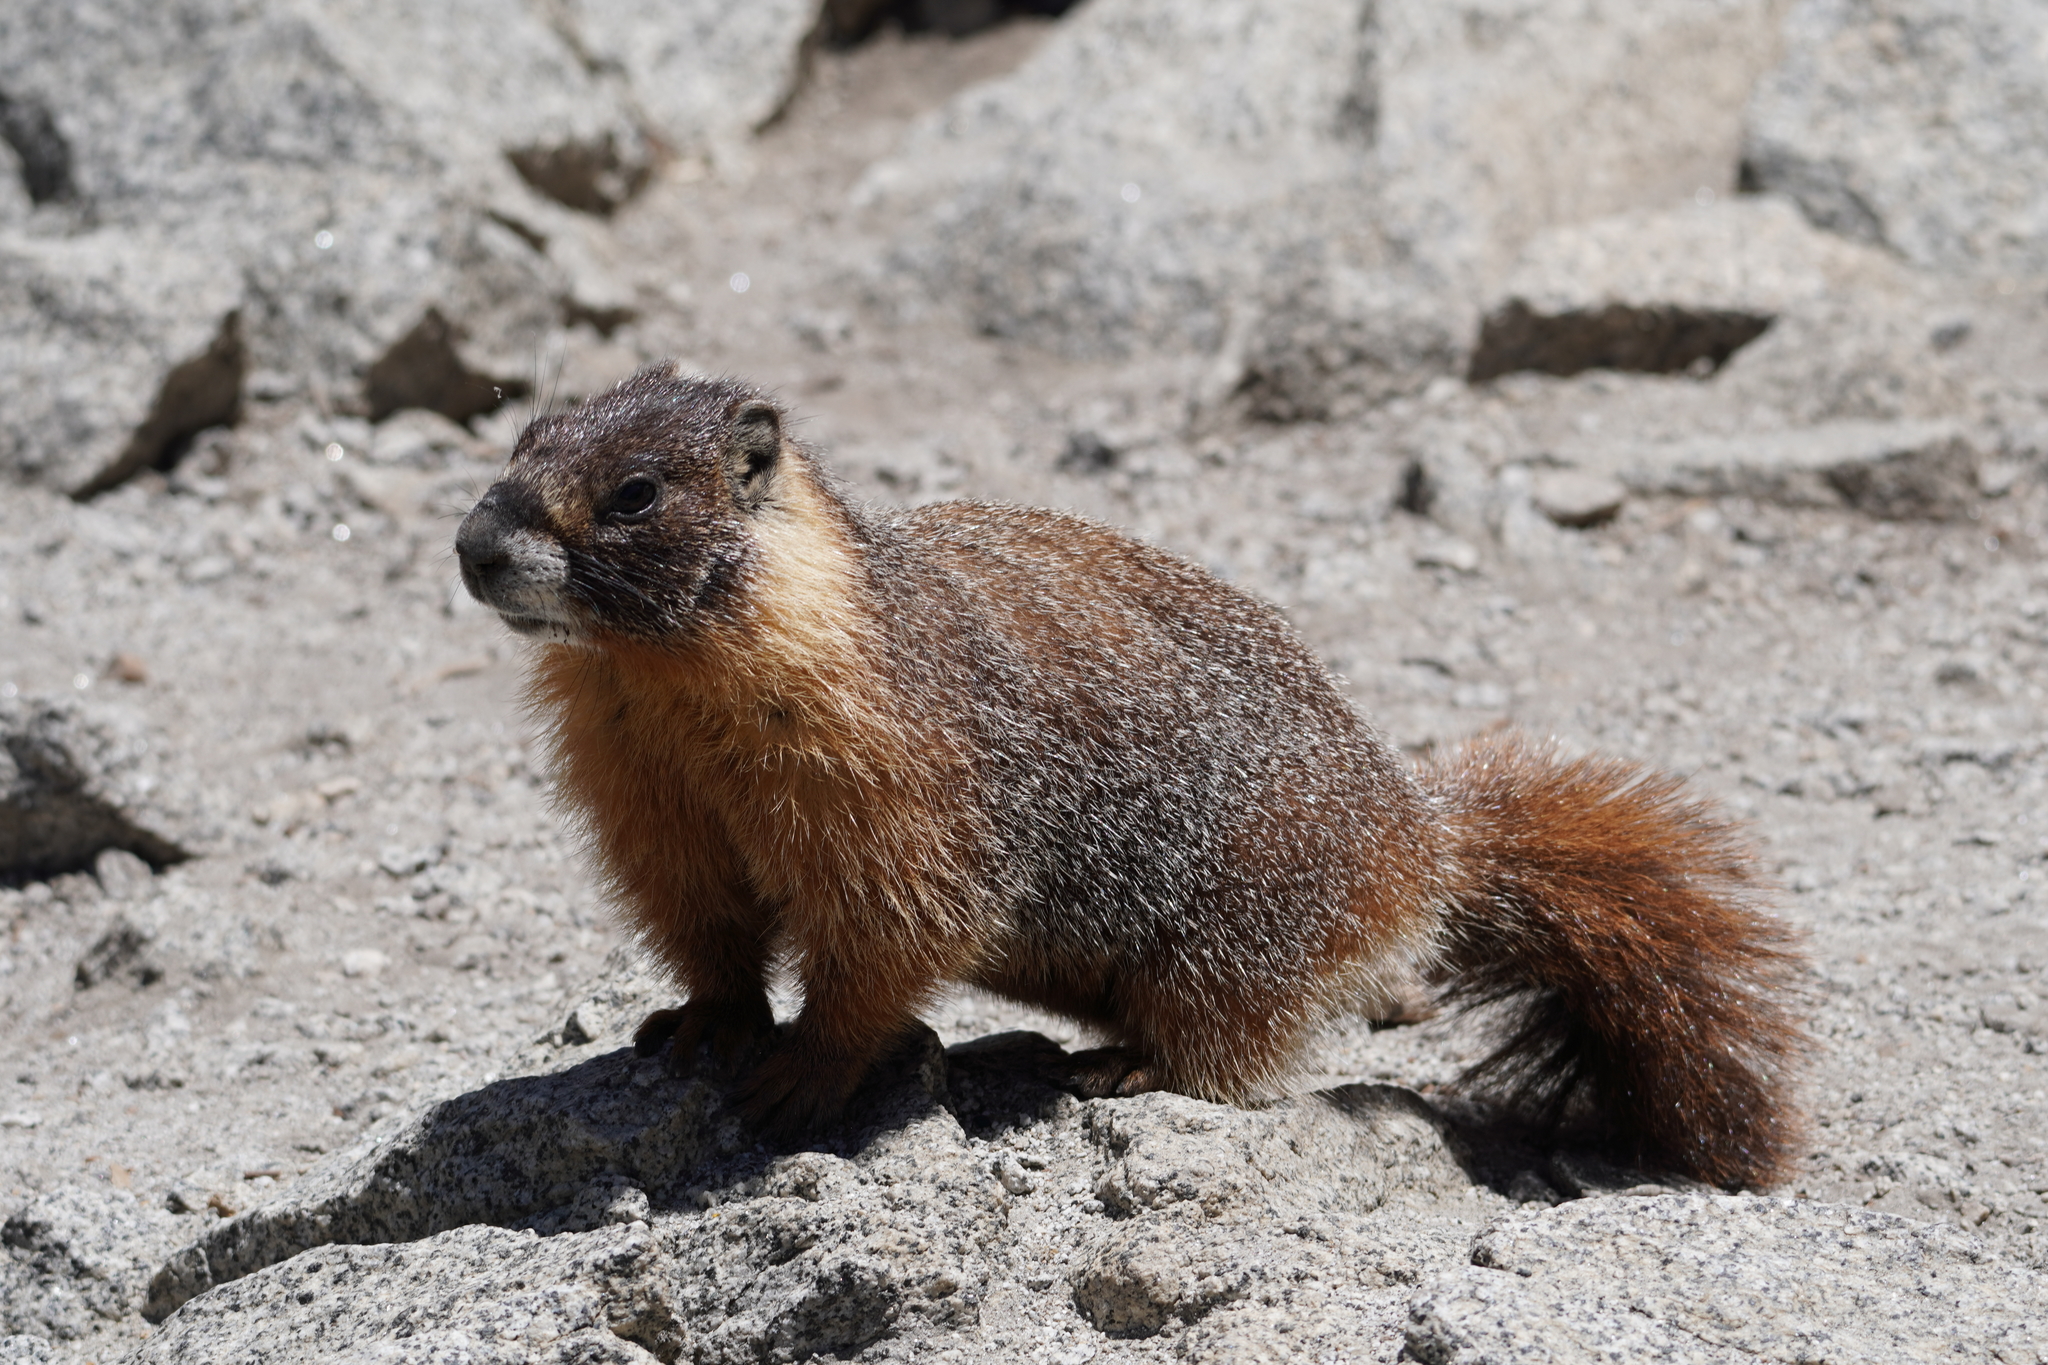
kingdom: Animalia
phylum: Chordata
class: Mammalia
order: Rodentia
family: Sciuridae
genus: Marmota
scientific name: Marmota flaviventris
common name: Yellow-bellied marmot
